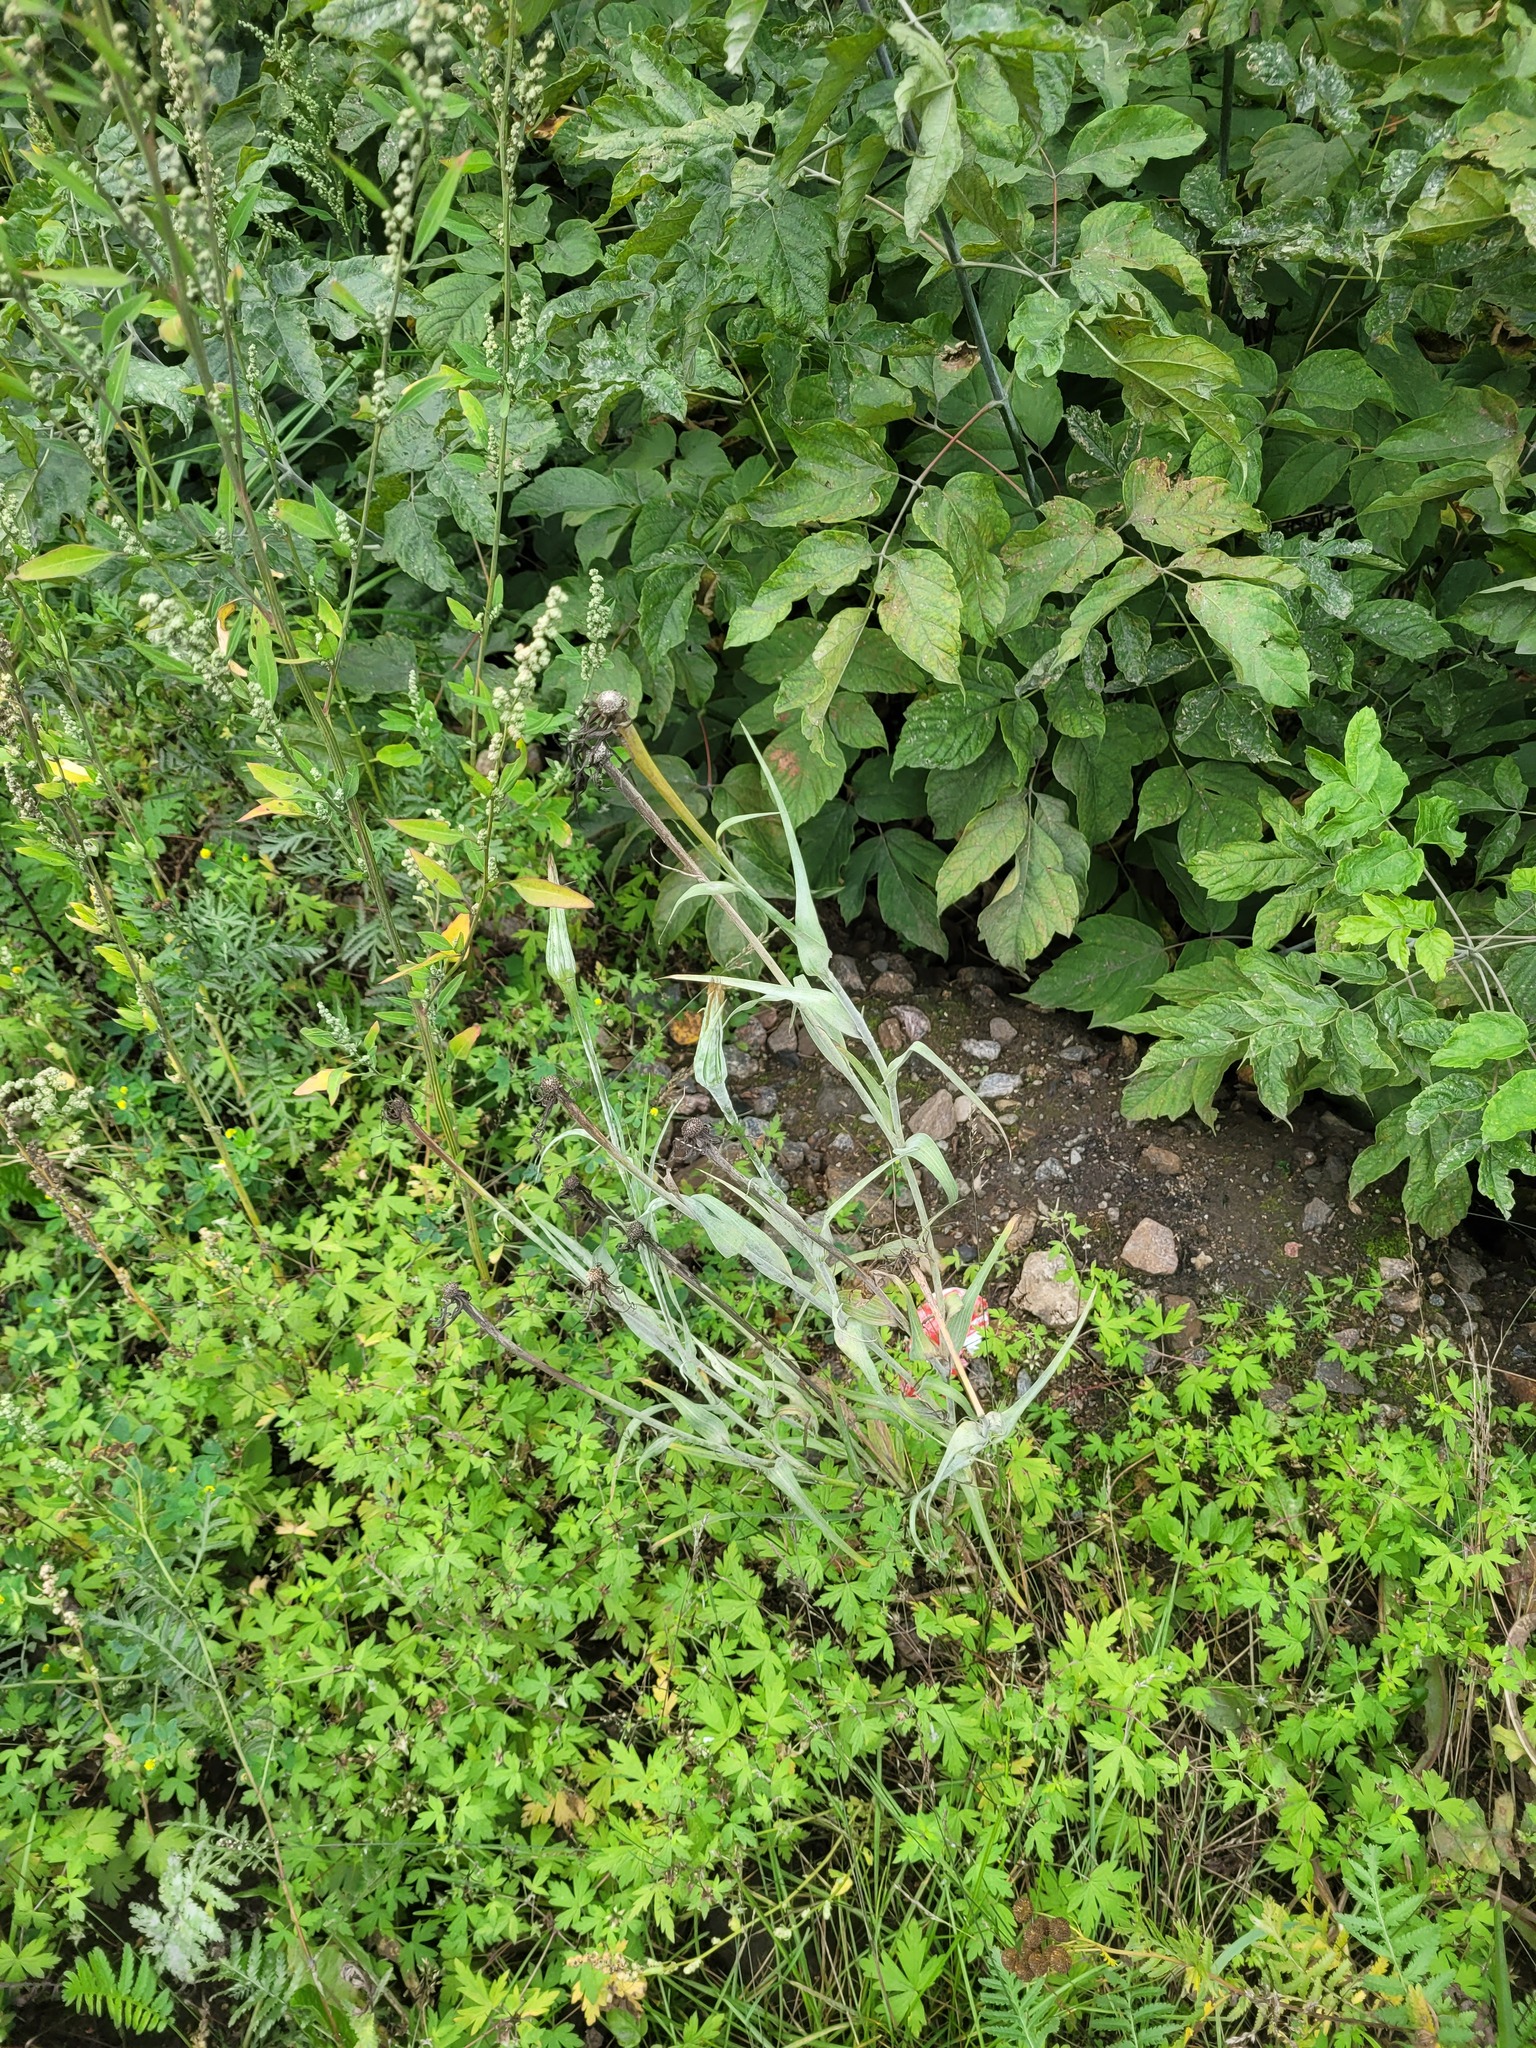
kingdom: Plantae
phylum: Tracheophyta
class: Magnoliopsida
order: Asterales
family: Asteraceae
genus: Tragopogon
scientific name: Tragopogon dubius
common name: Yellow salsify
